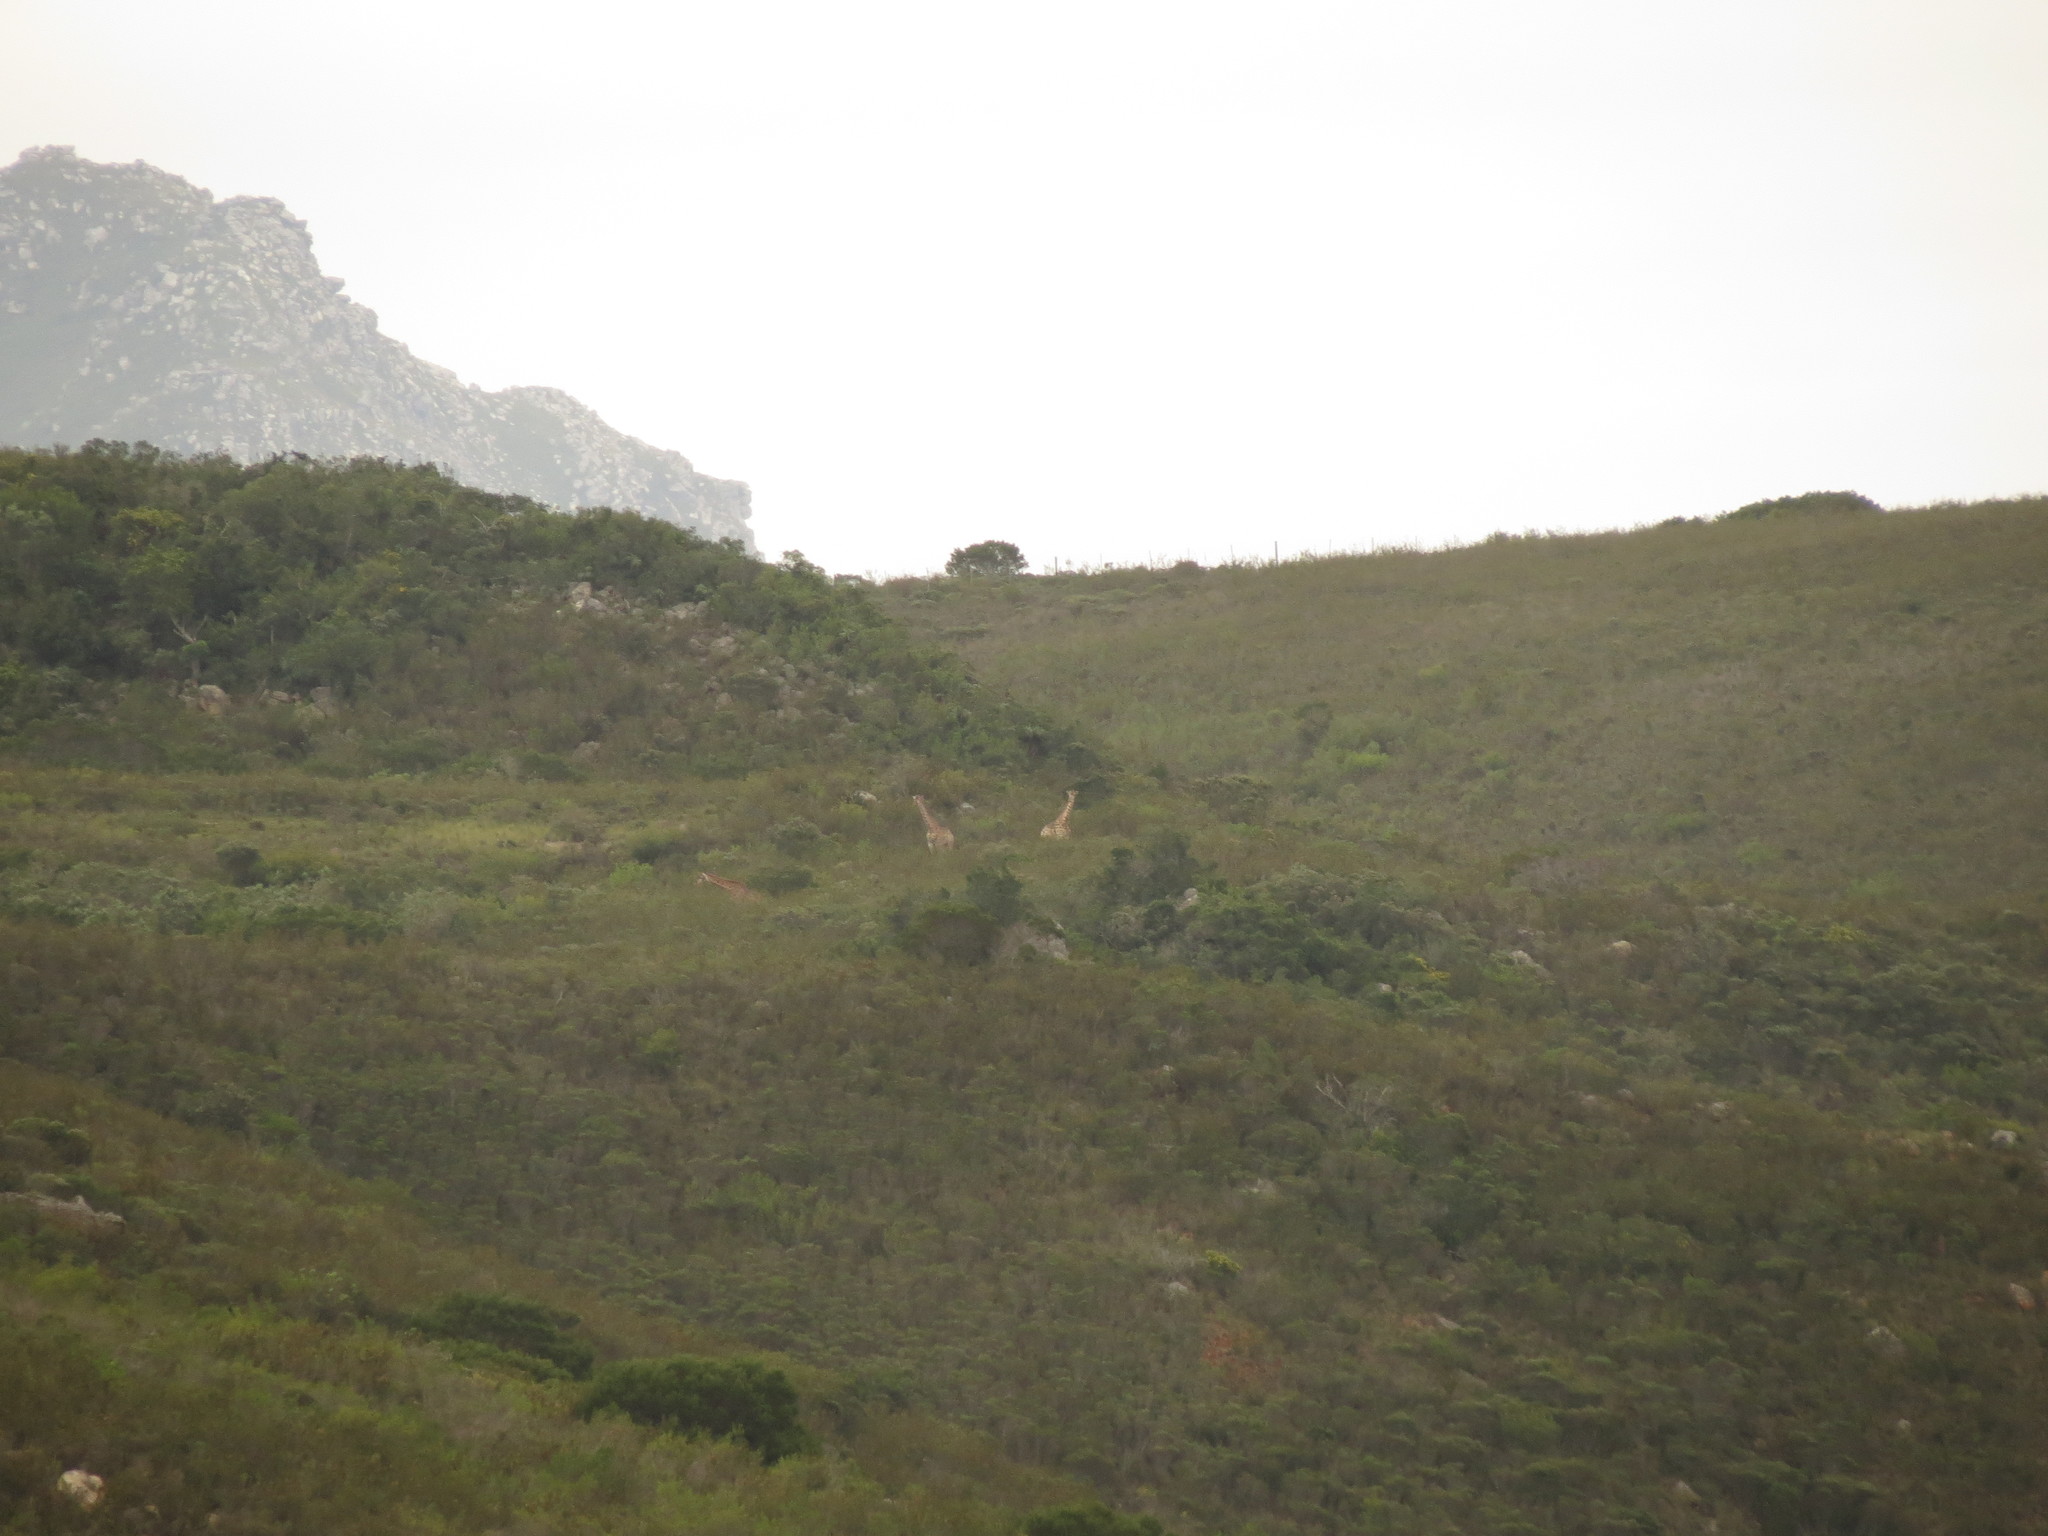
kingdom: Animalia
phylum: Chordata
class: Mammalia
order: Artiodactyla
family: Giraffidae
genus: Giraffa
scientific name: Giraffa giraffa
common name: Southern giraffe
